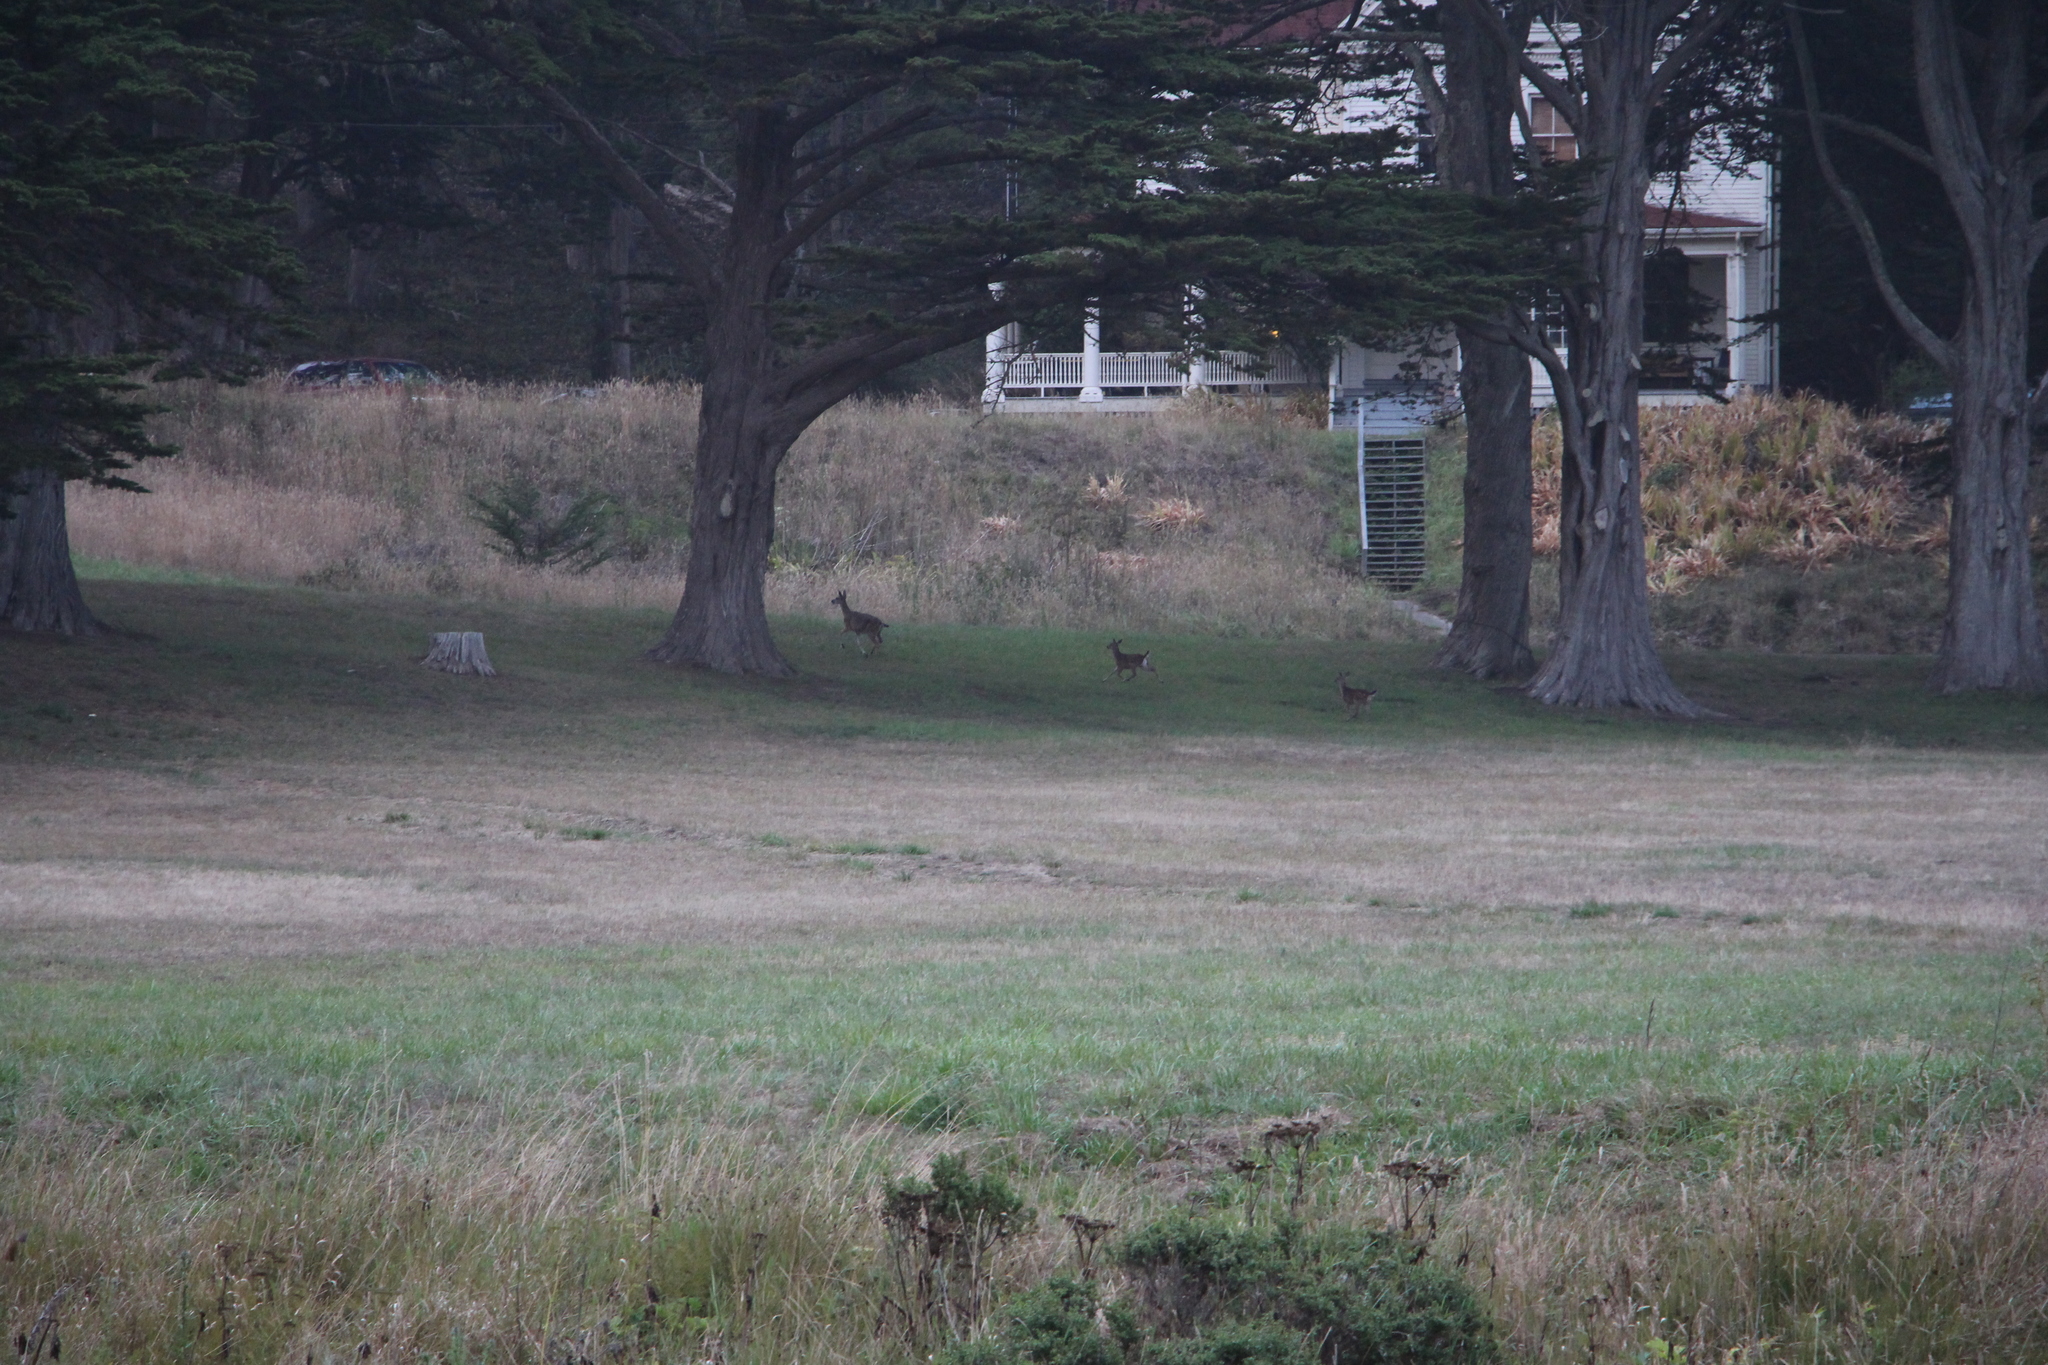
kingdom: Animalia
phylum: Chordata
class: Mammalia
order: Artiodactyla
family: Cervidae
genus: Odocoileus
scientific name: Odocoileus hemionus
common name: Mule deer
